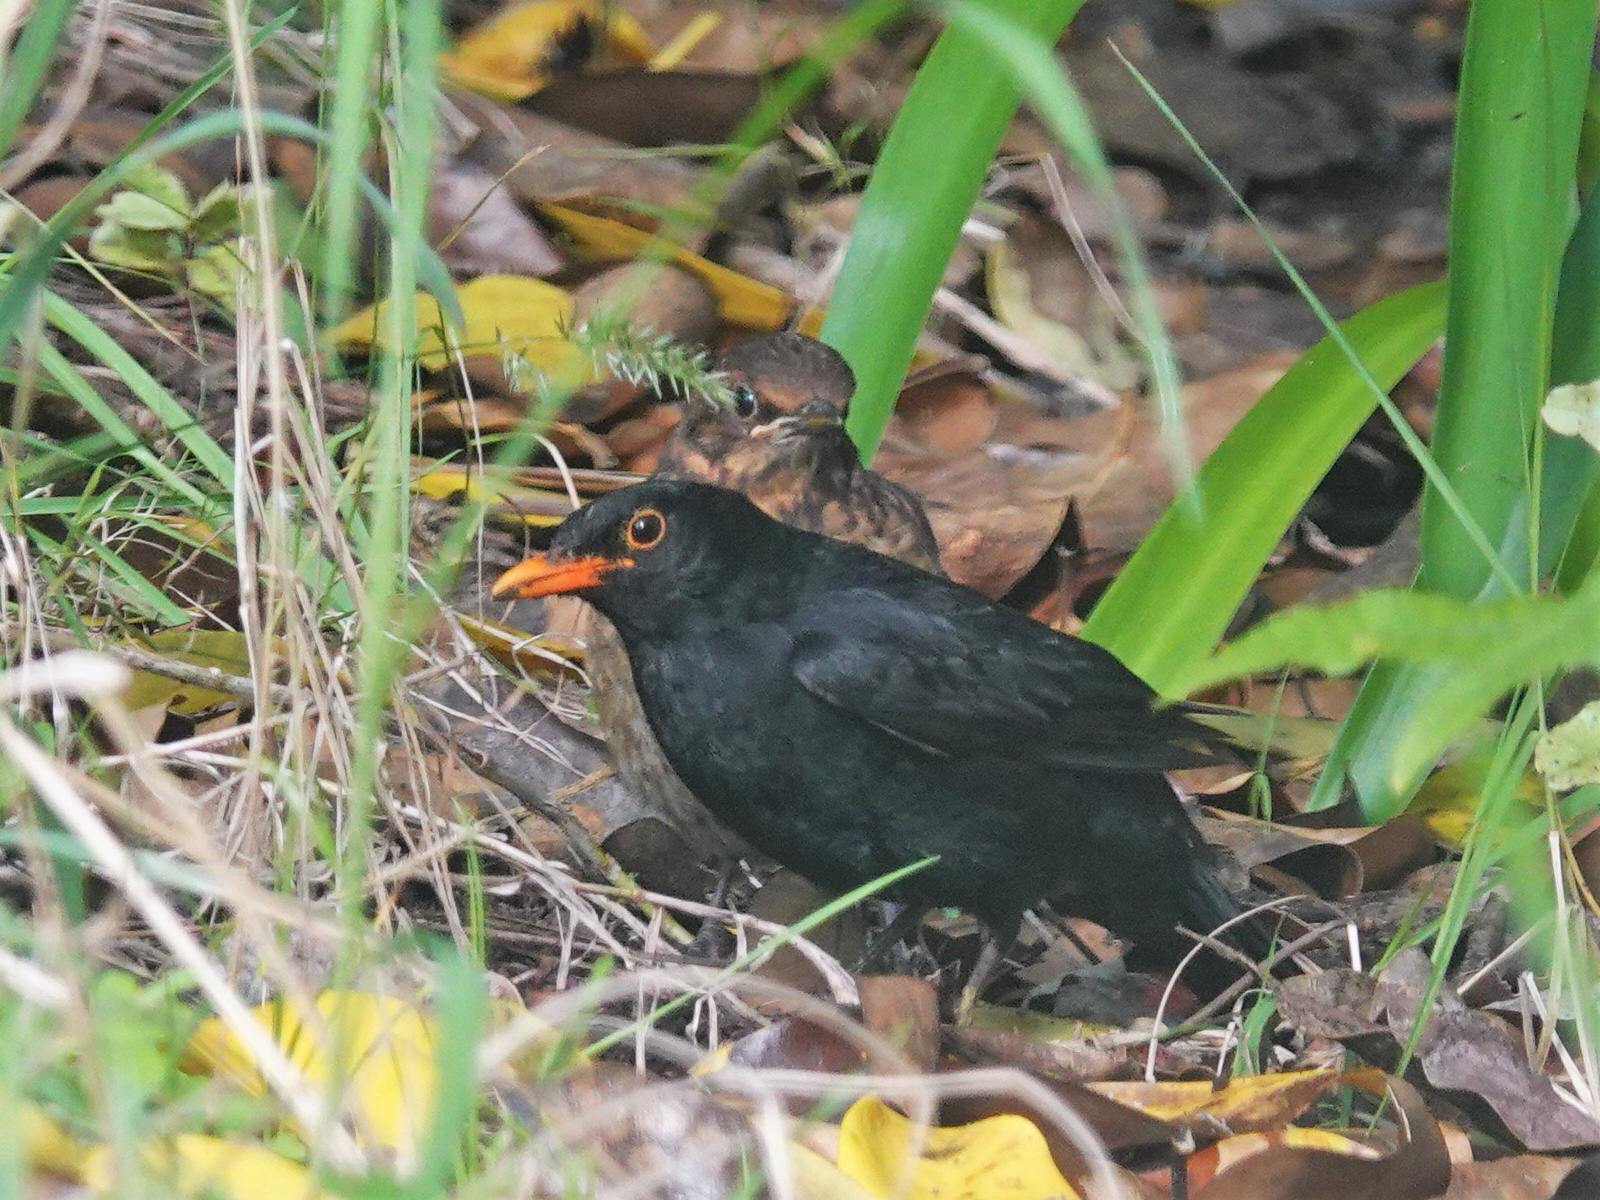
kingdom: Animalia
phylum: Chordata
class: Aves
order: Passeriformes
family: Turdidae
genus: Turdus
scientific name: Turdus merula
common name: Common blackbird
